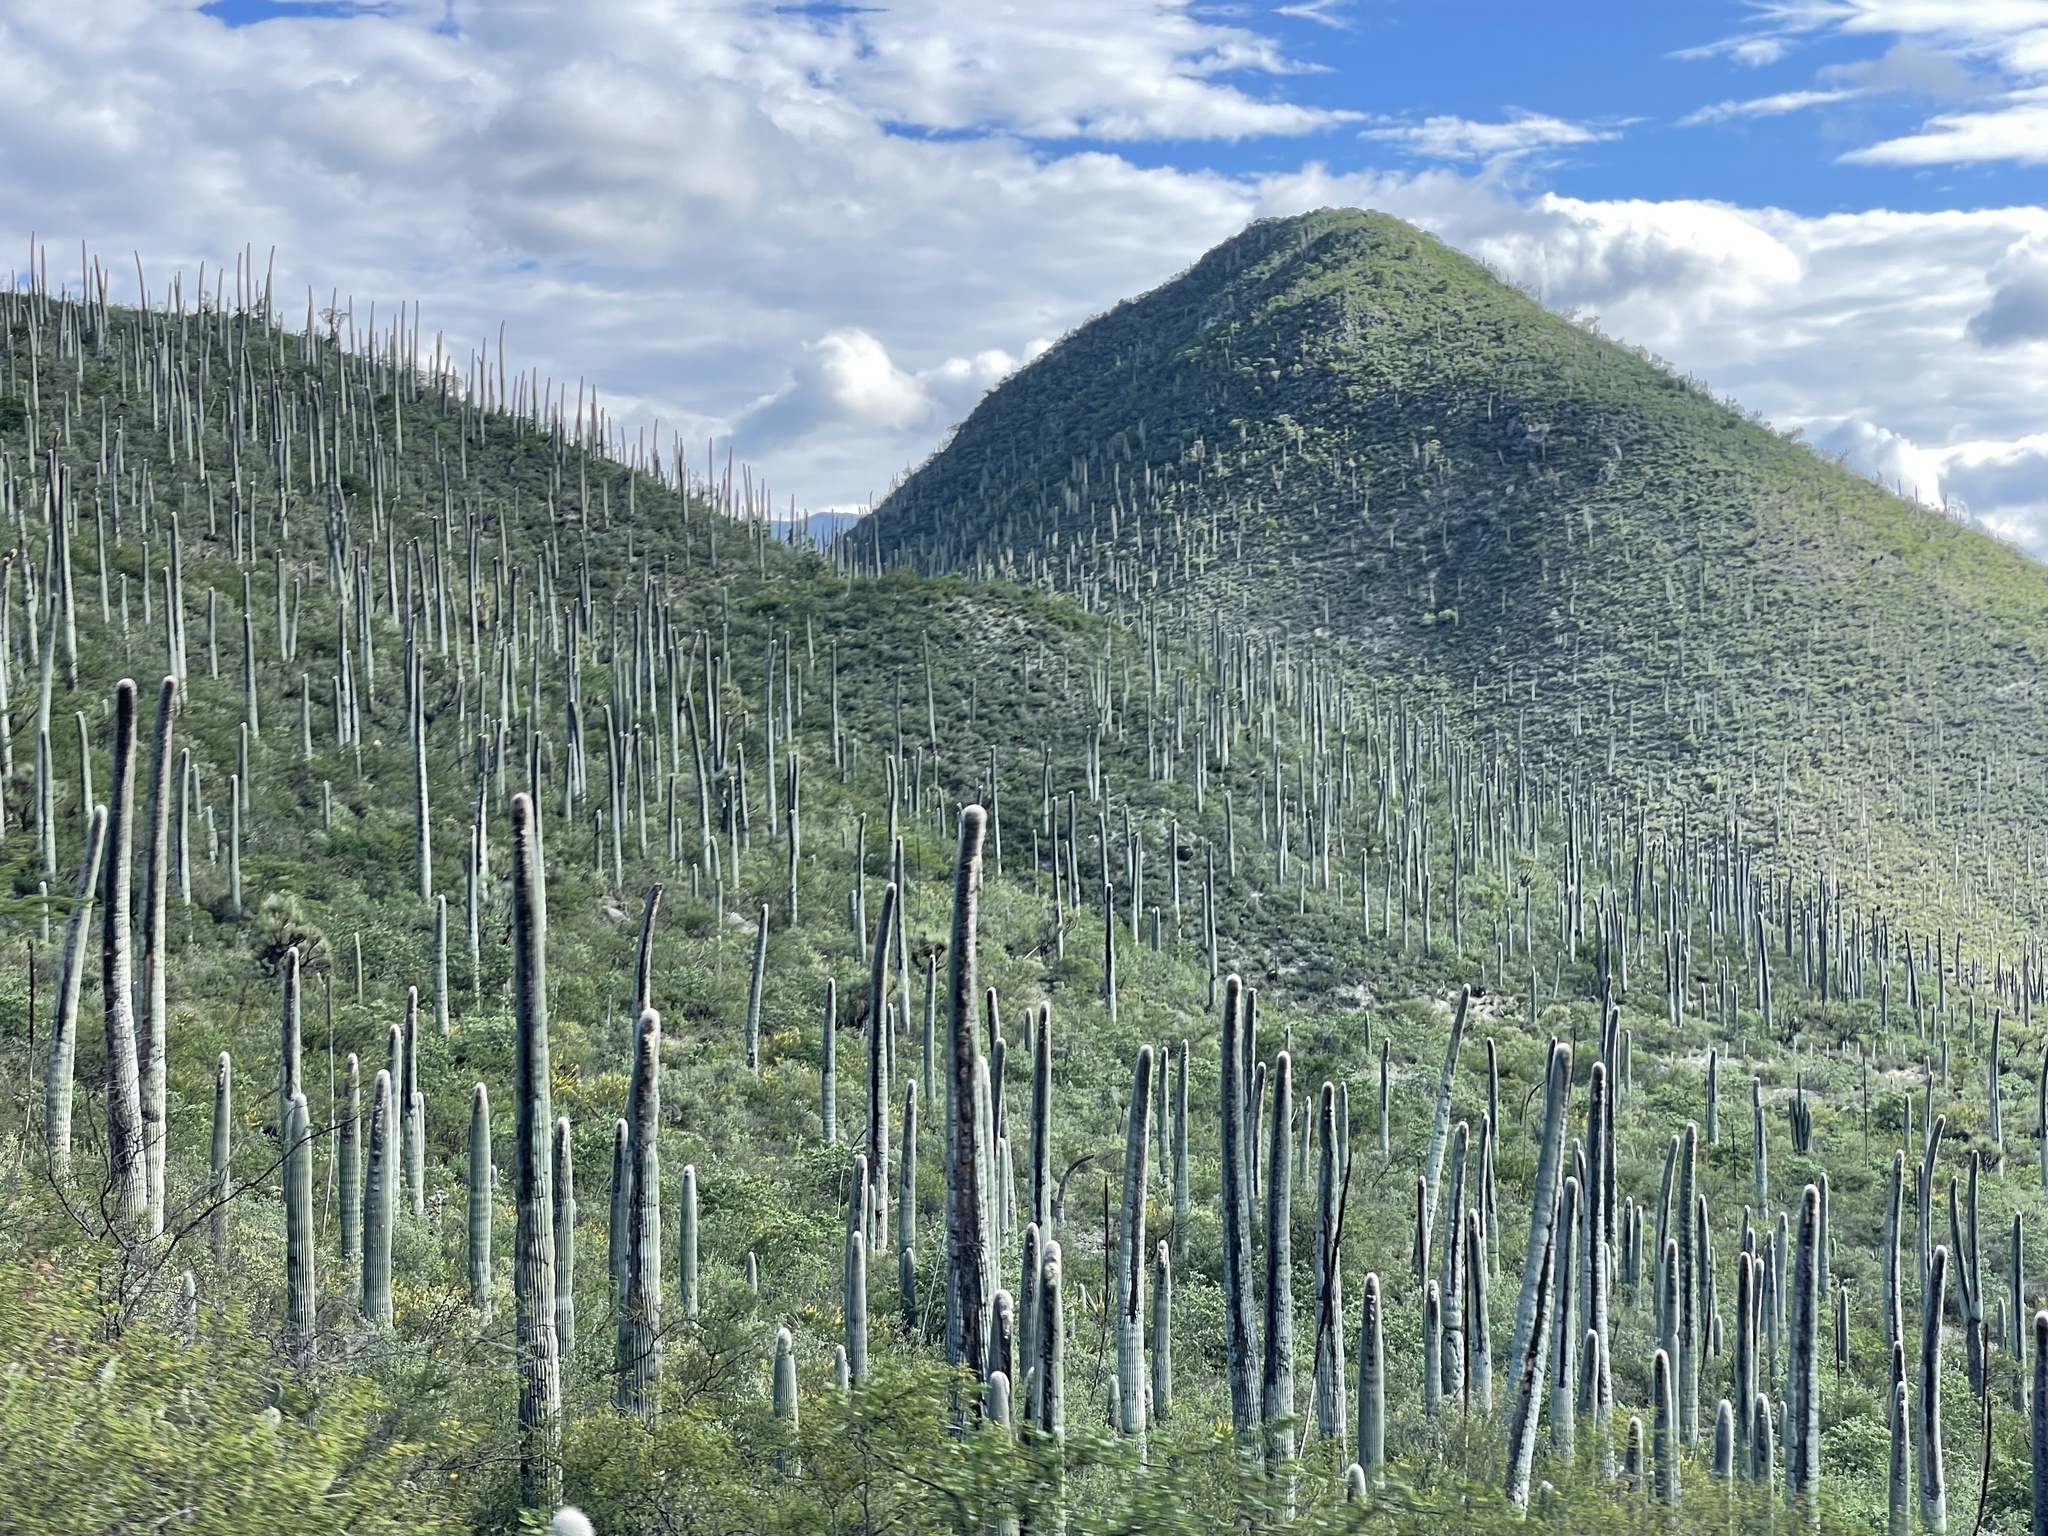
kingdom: Plantae
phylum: Tracheophyta
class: Magnoliopsida
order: Caryophyllales
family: Cactaceae
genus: Cephalocereus
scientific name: Cephalocereus columna-trajani
